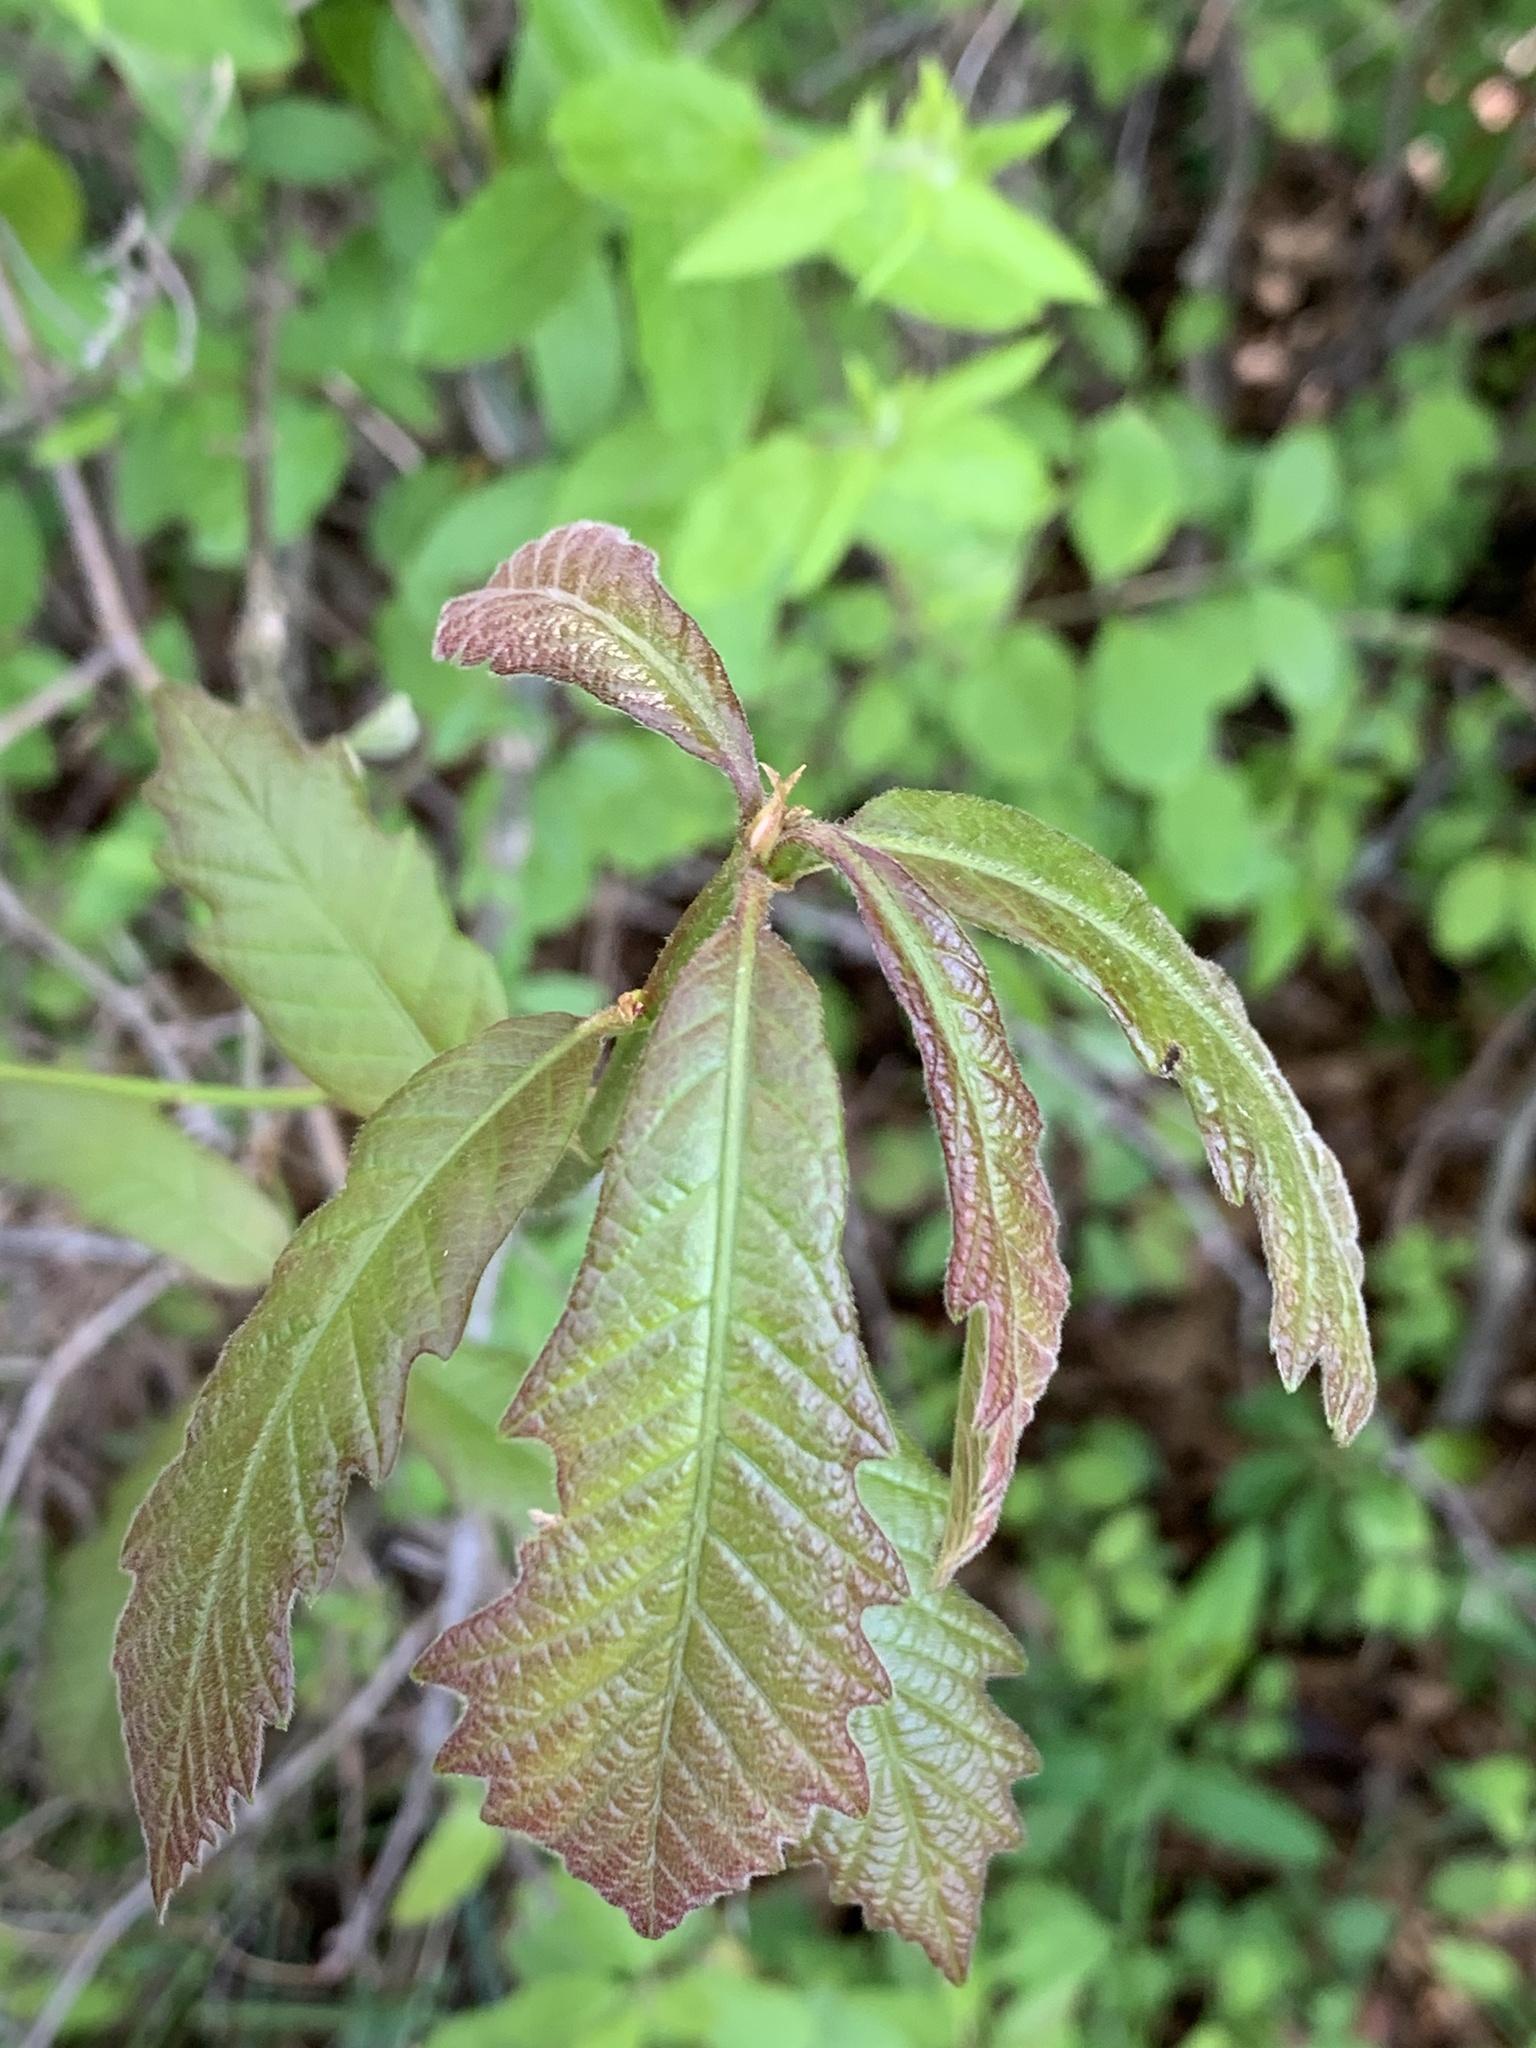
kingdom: Plantae
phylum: Tracheophyta
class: Magnoliopsida
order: Fagales
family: Fagaceae
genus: Quercus
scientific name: Quercus bicolor
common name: Swamp white oak
